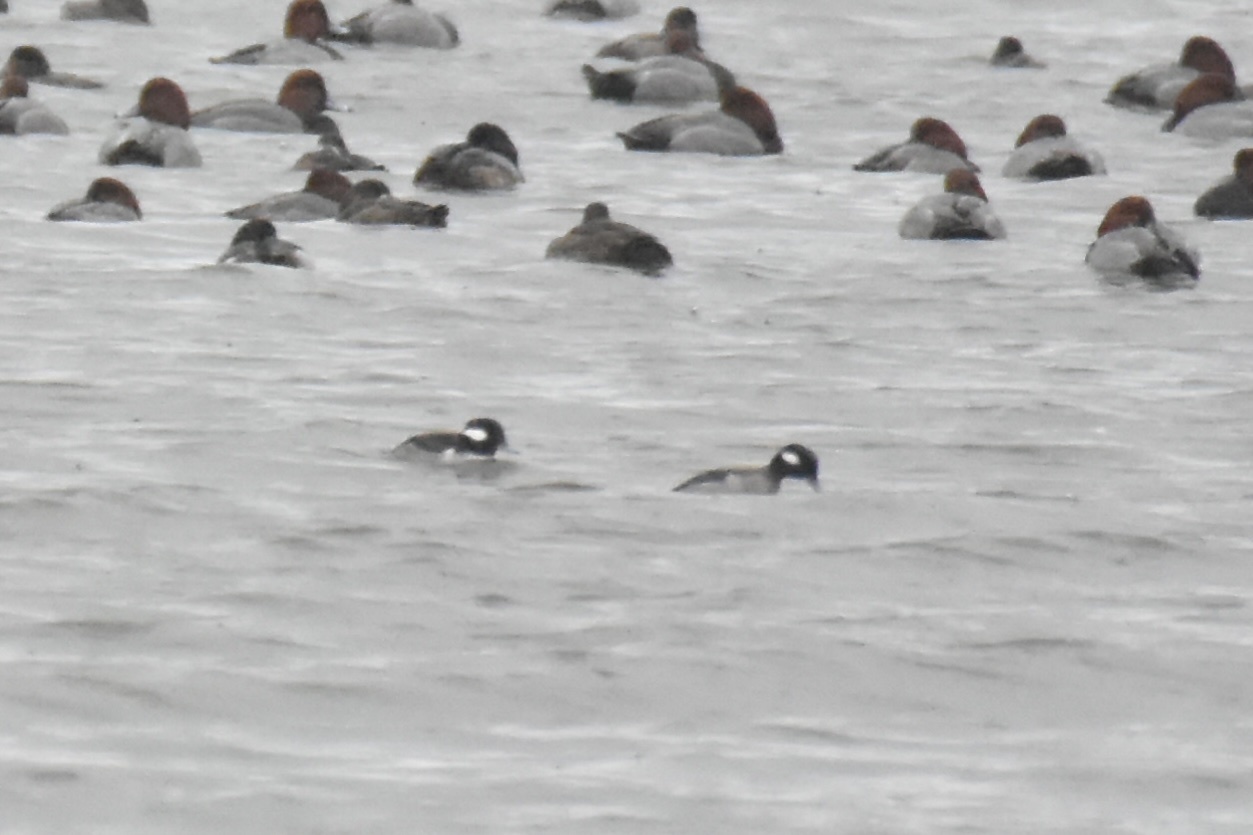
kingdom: Animalia
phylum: Chordata
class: Aves
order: Anseriformes
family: Anatidae
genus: Bucephala
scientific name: Bucephala albeola
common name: Bufflehead
